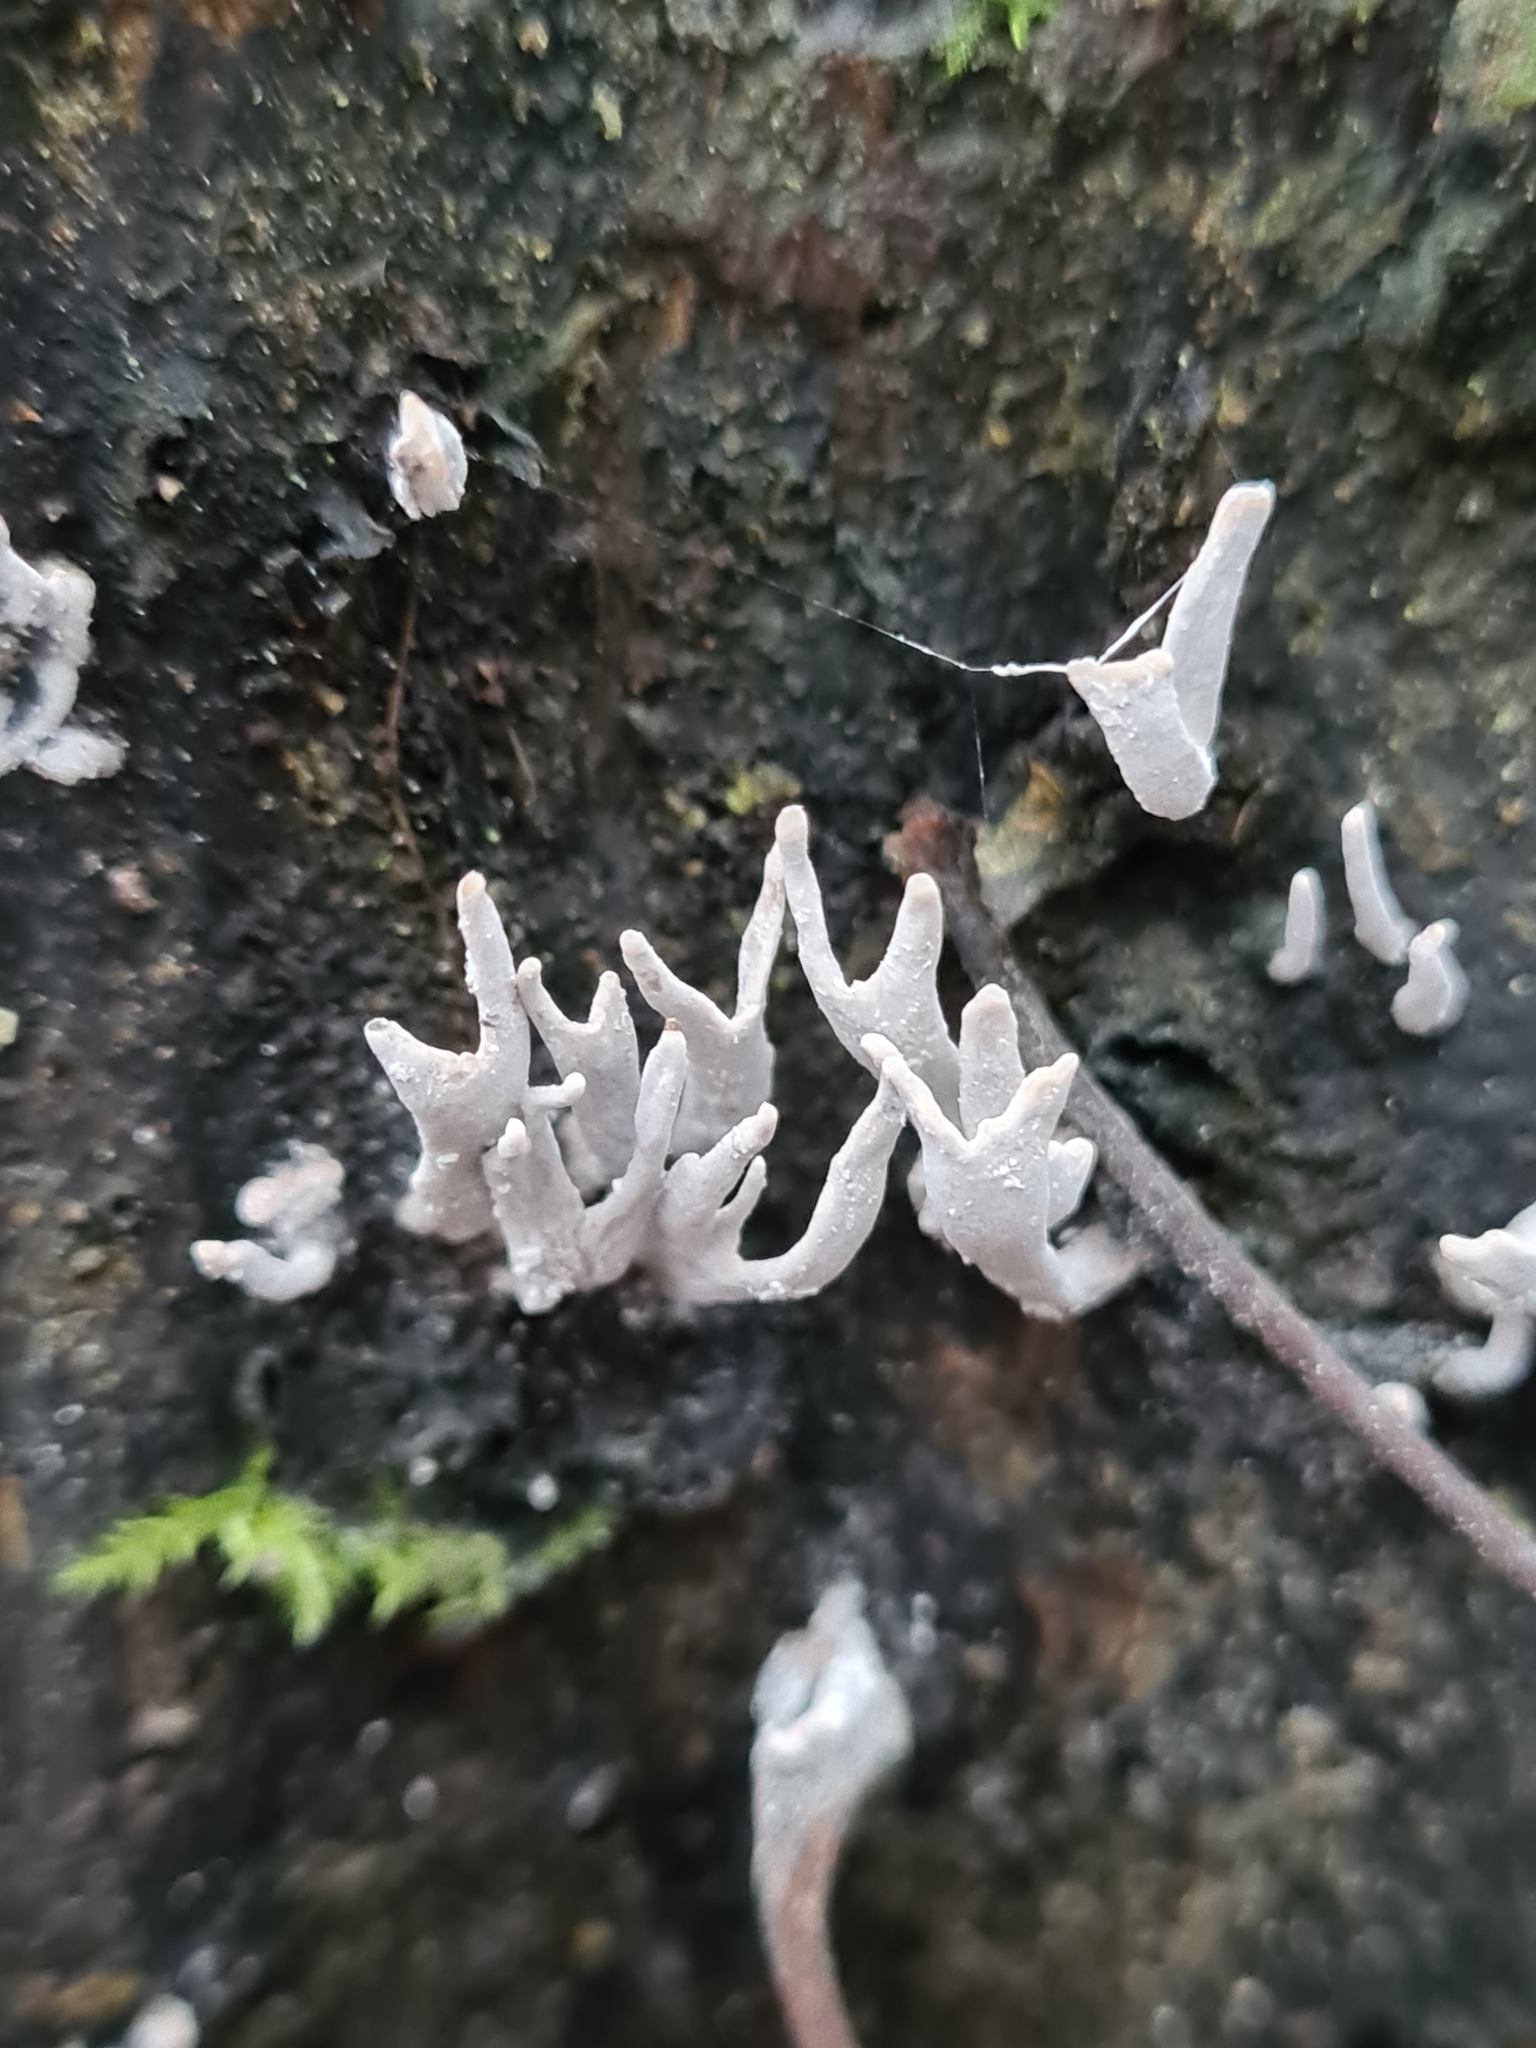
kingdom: Fungi
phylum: Ascomycota
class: Sordariomycetes
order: Xylariales
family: Xylariaceae
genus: Xylaria
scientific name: Xylaria hypoxylon
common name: Candle-snuff fungus
